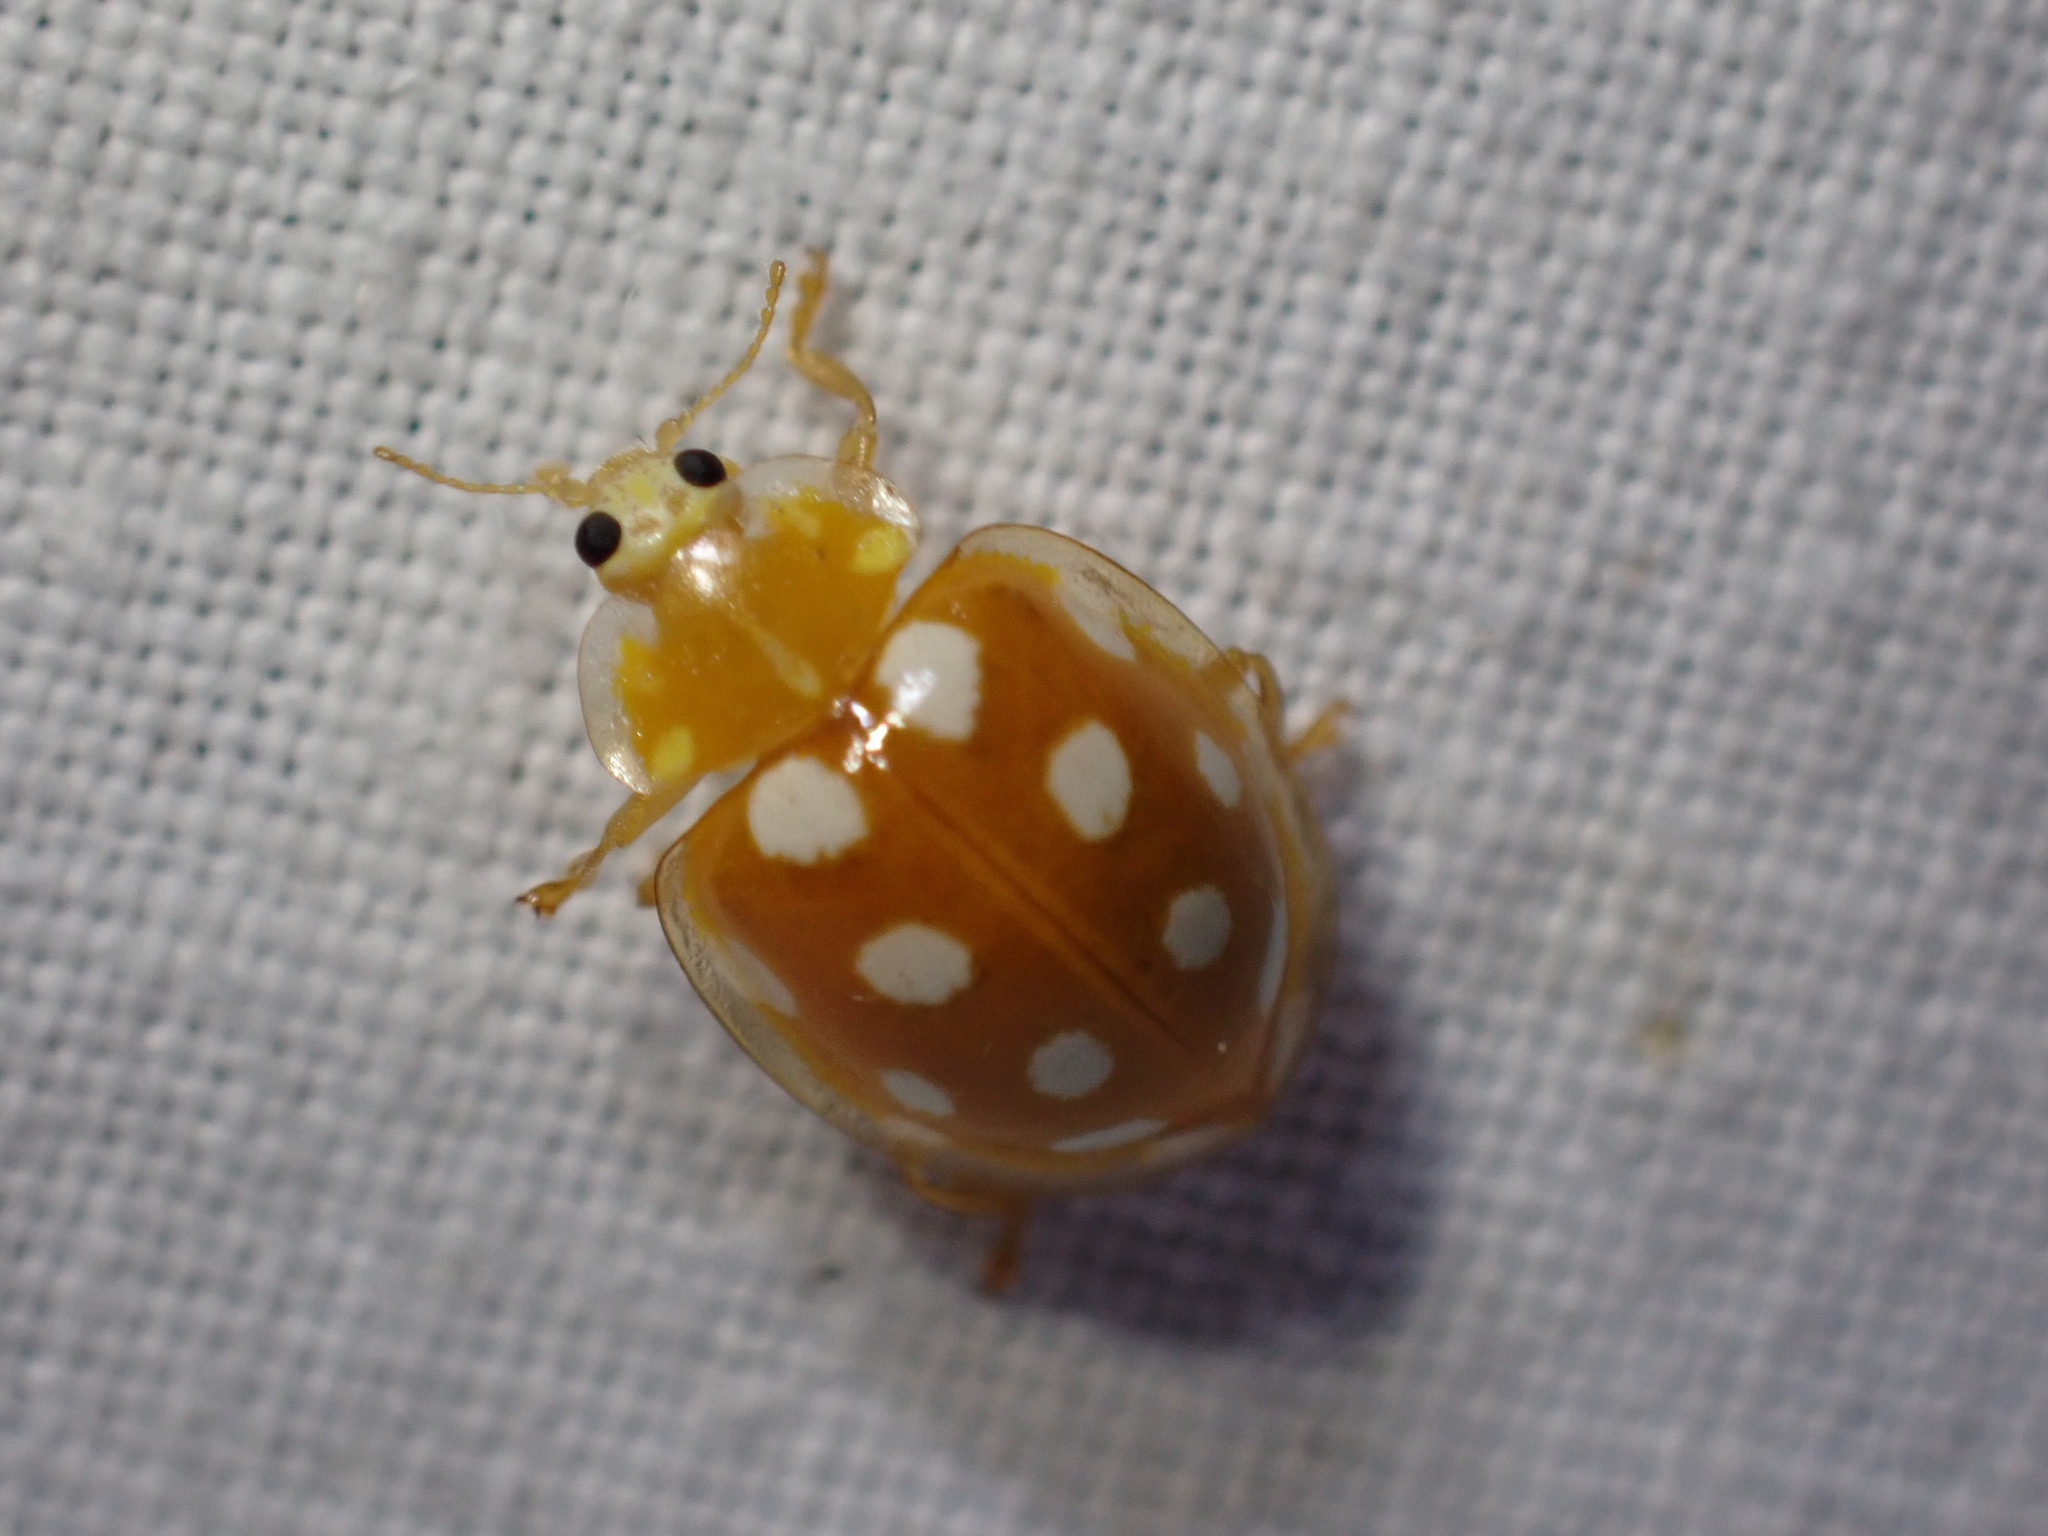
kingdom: Animalia
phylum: Arthropoda
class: Insecta
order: Coleoptera
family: Coccinellidae
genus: Halyzia
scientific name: Halyzia sedecimguttata
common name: Orange ladybird
